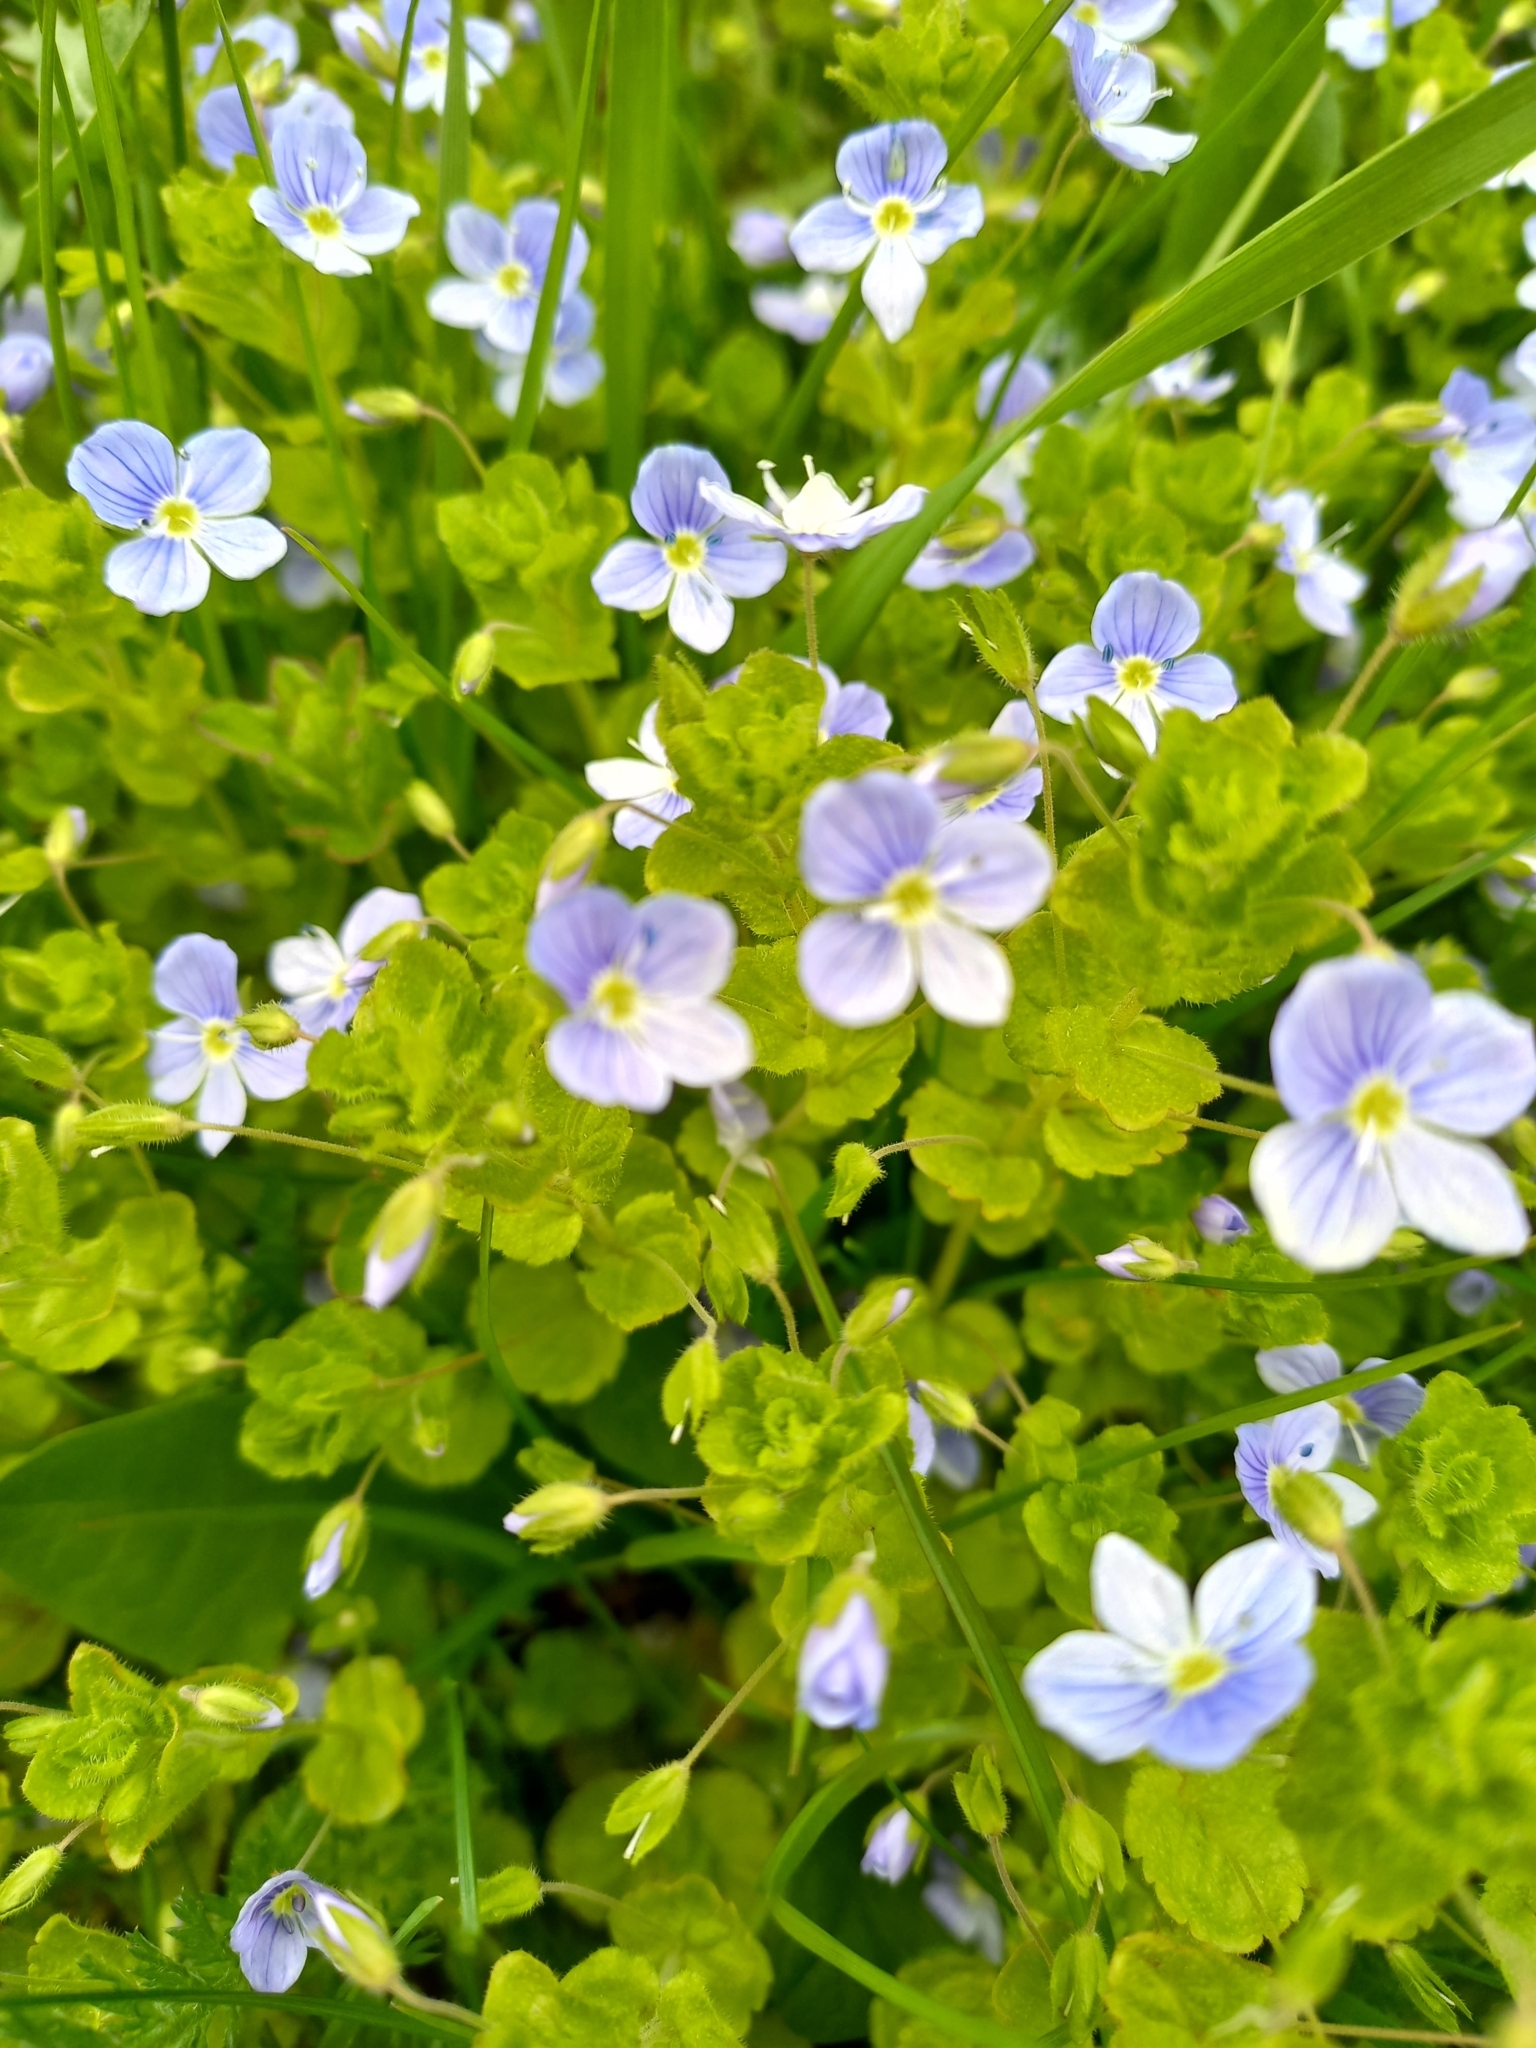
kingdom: Plantae
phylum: Tracheophyta
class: Magnoliopsida
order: Lamiales
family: Plantaginaceae
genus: Veronica
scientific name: Veronica filiformis
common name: Slender speedwell
